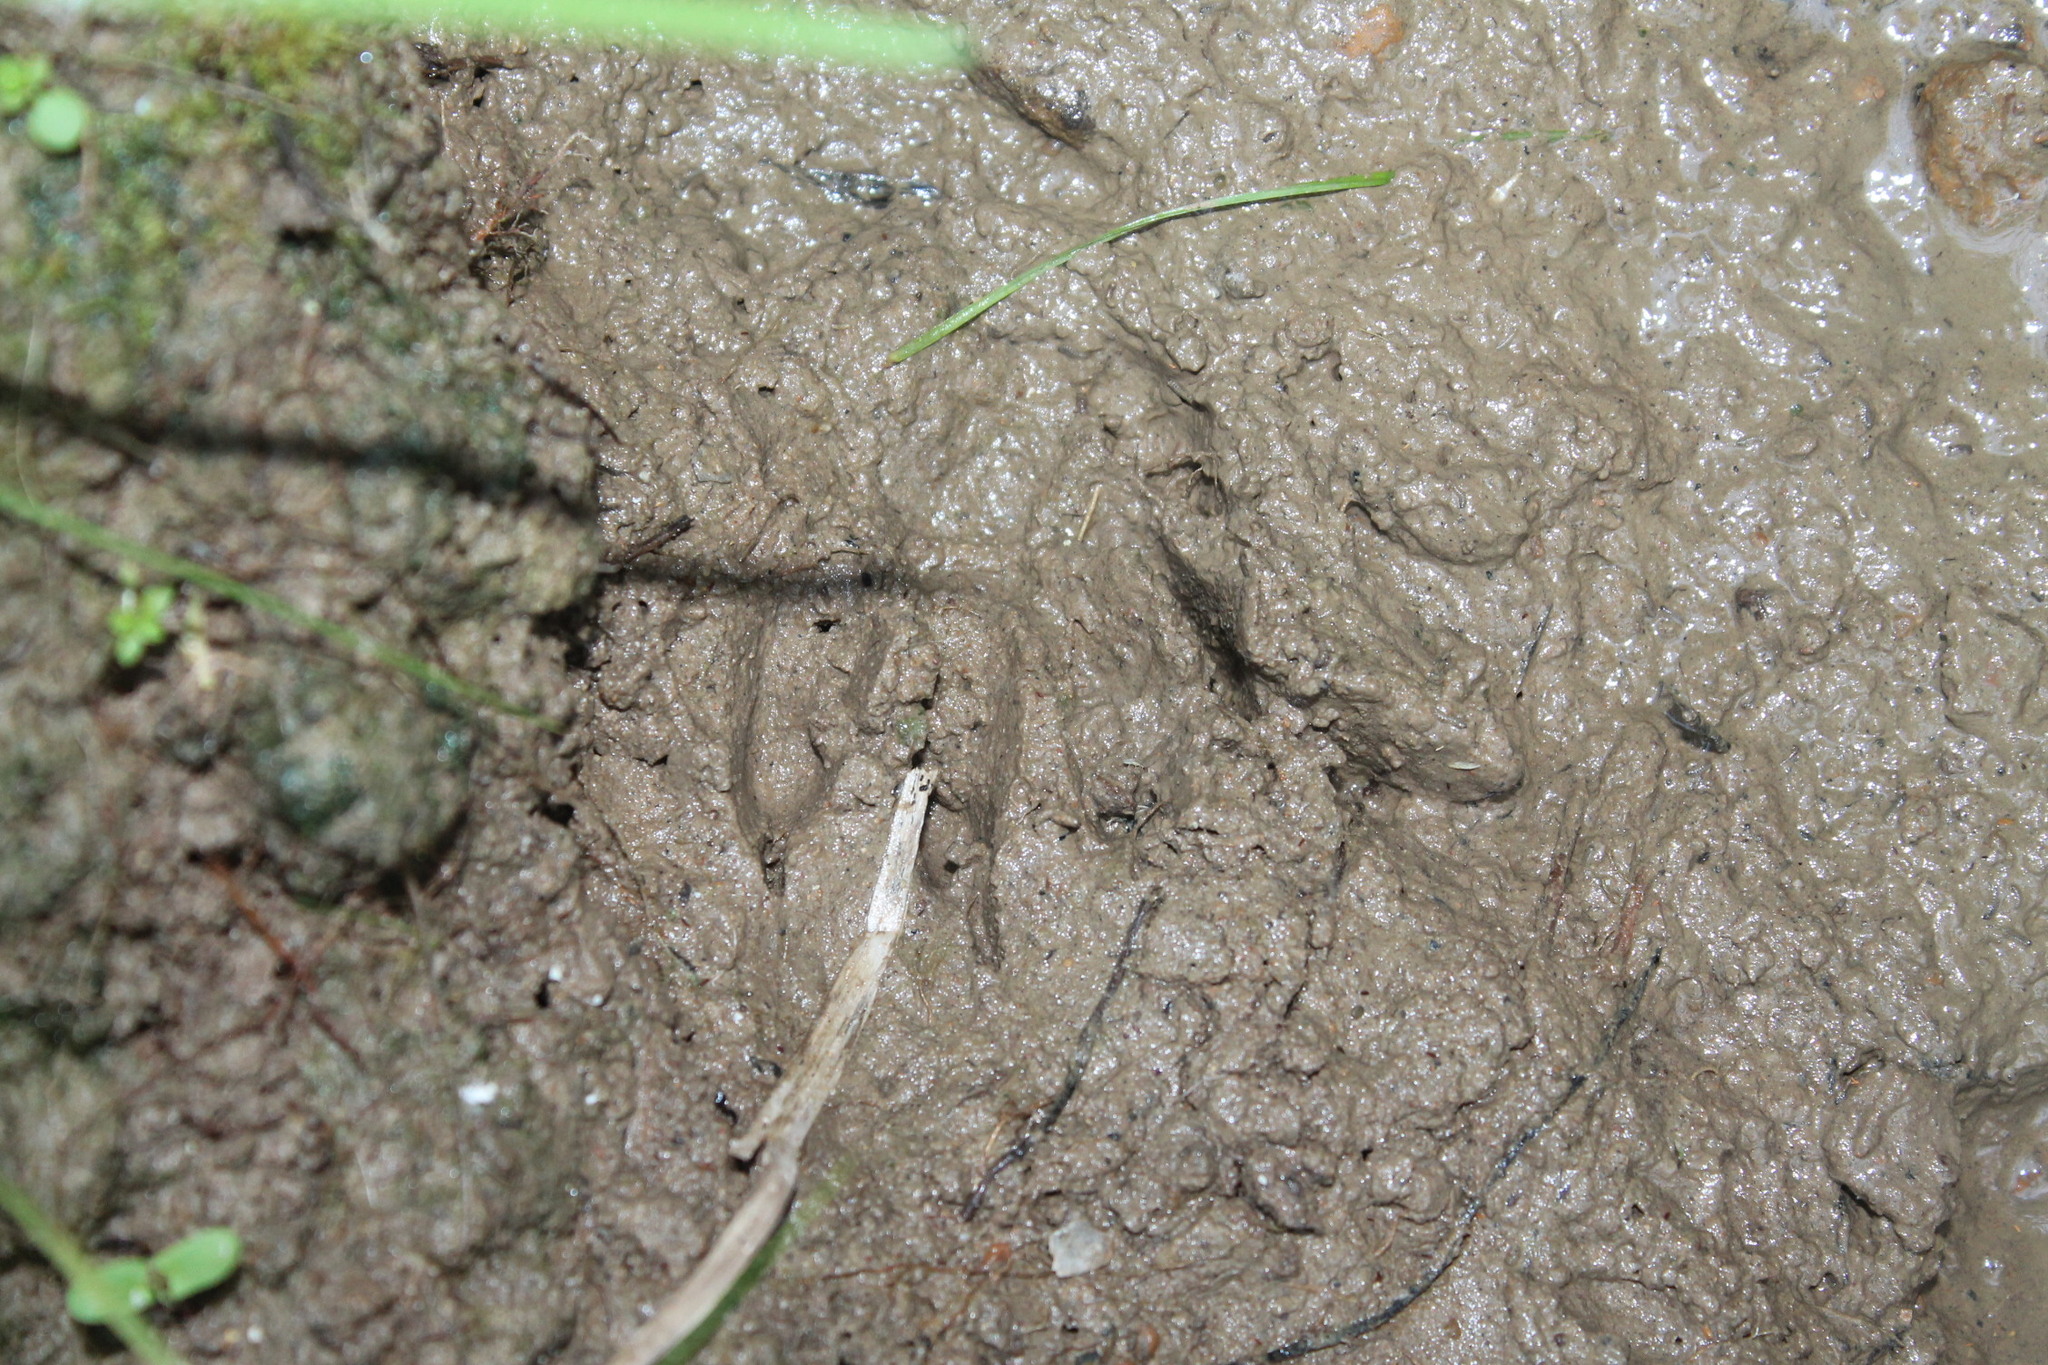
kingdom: Animalia
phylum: Chordata
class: Mammalia
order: Carnivora
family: Procyonidae
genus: Procyon
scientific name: Procyon lotor
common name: Raccoon
